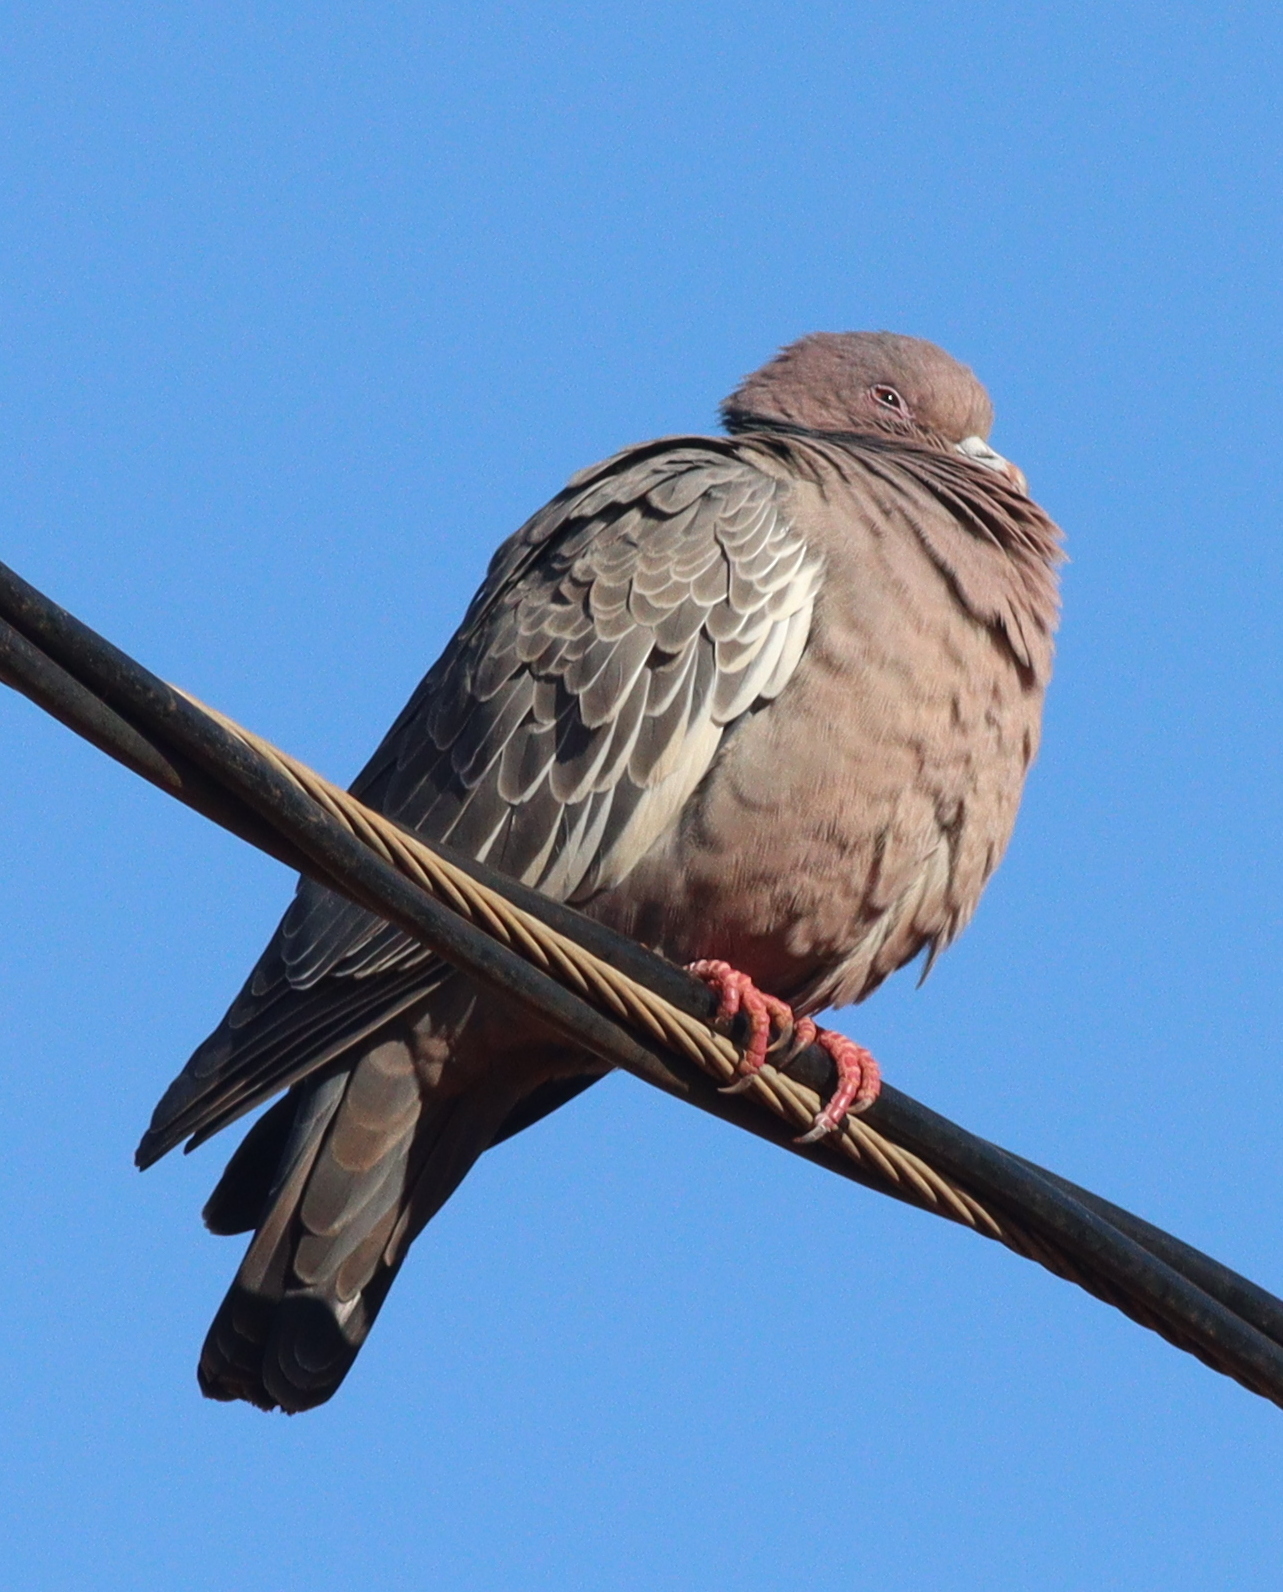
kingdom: Animalia
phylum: Chordata
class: Aves
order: Columbiformes
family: Columbidae
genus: Patagioenas
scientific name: Patagioenas picazuro
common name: Picazuro pigeon
